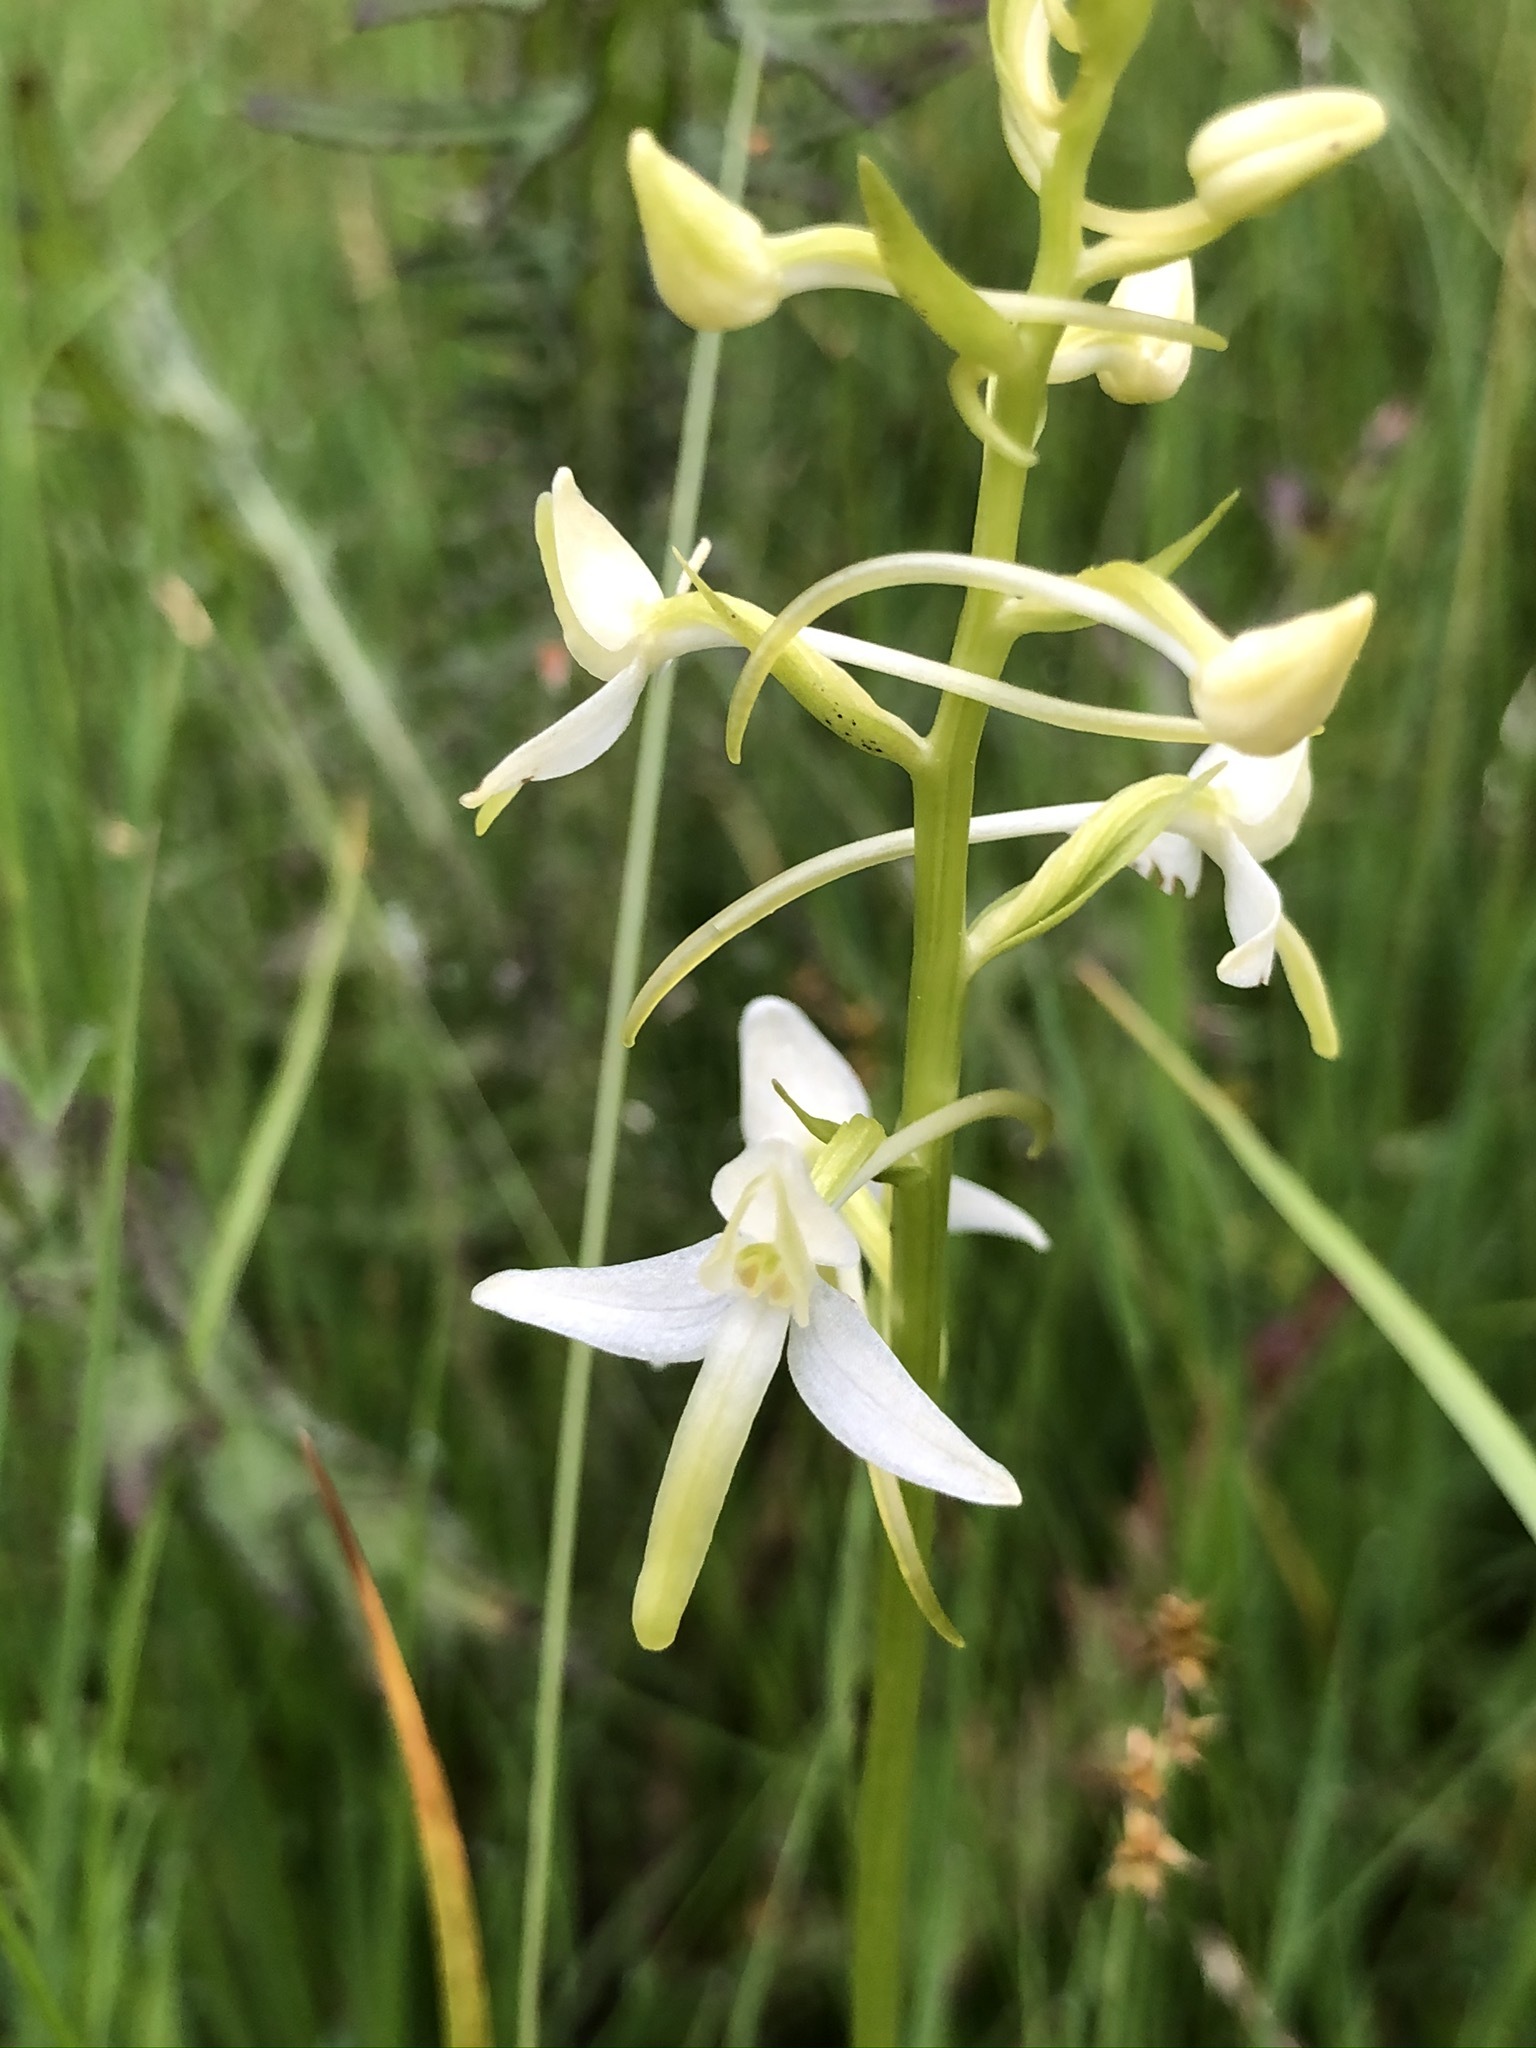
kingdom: Plantae
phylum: Tracheophyta
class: Liliopsida
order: Asparagales
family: Orchidaceae
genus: Platanthera
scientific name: Platanthera bifolia
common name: Lesser butterfly-orchid
